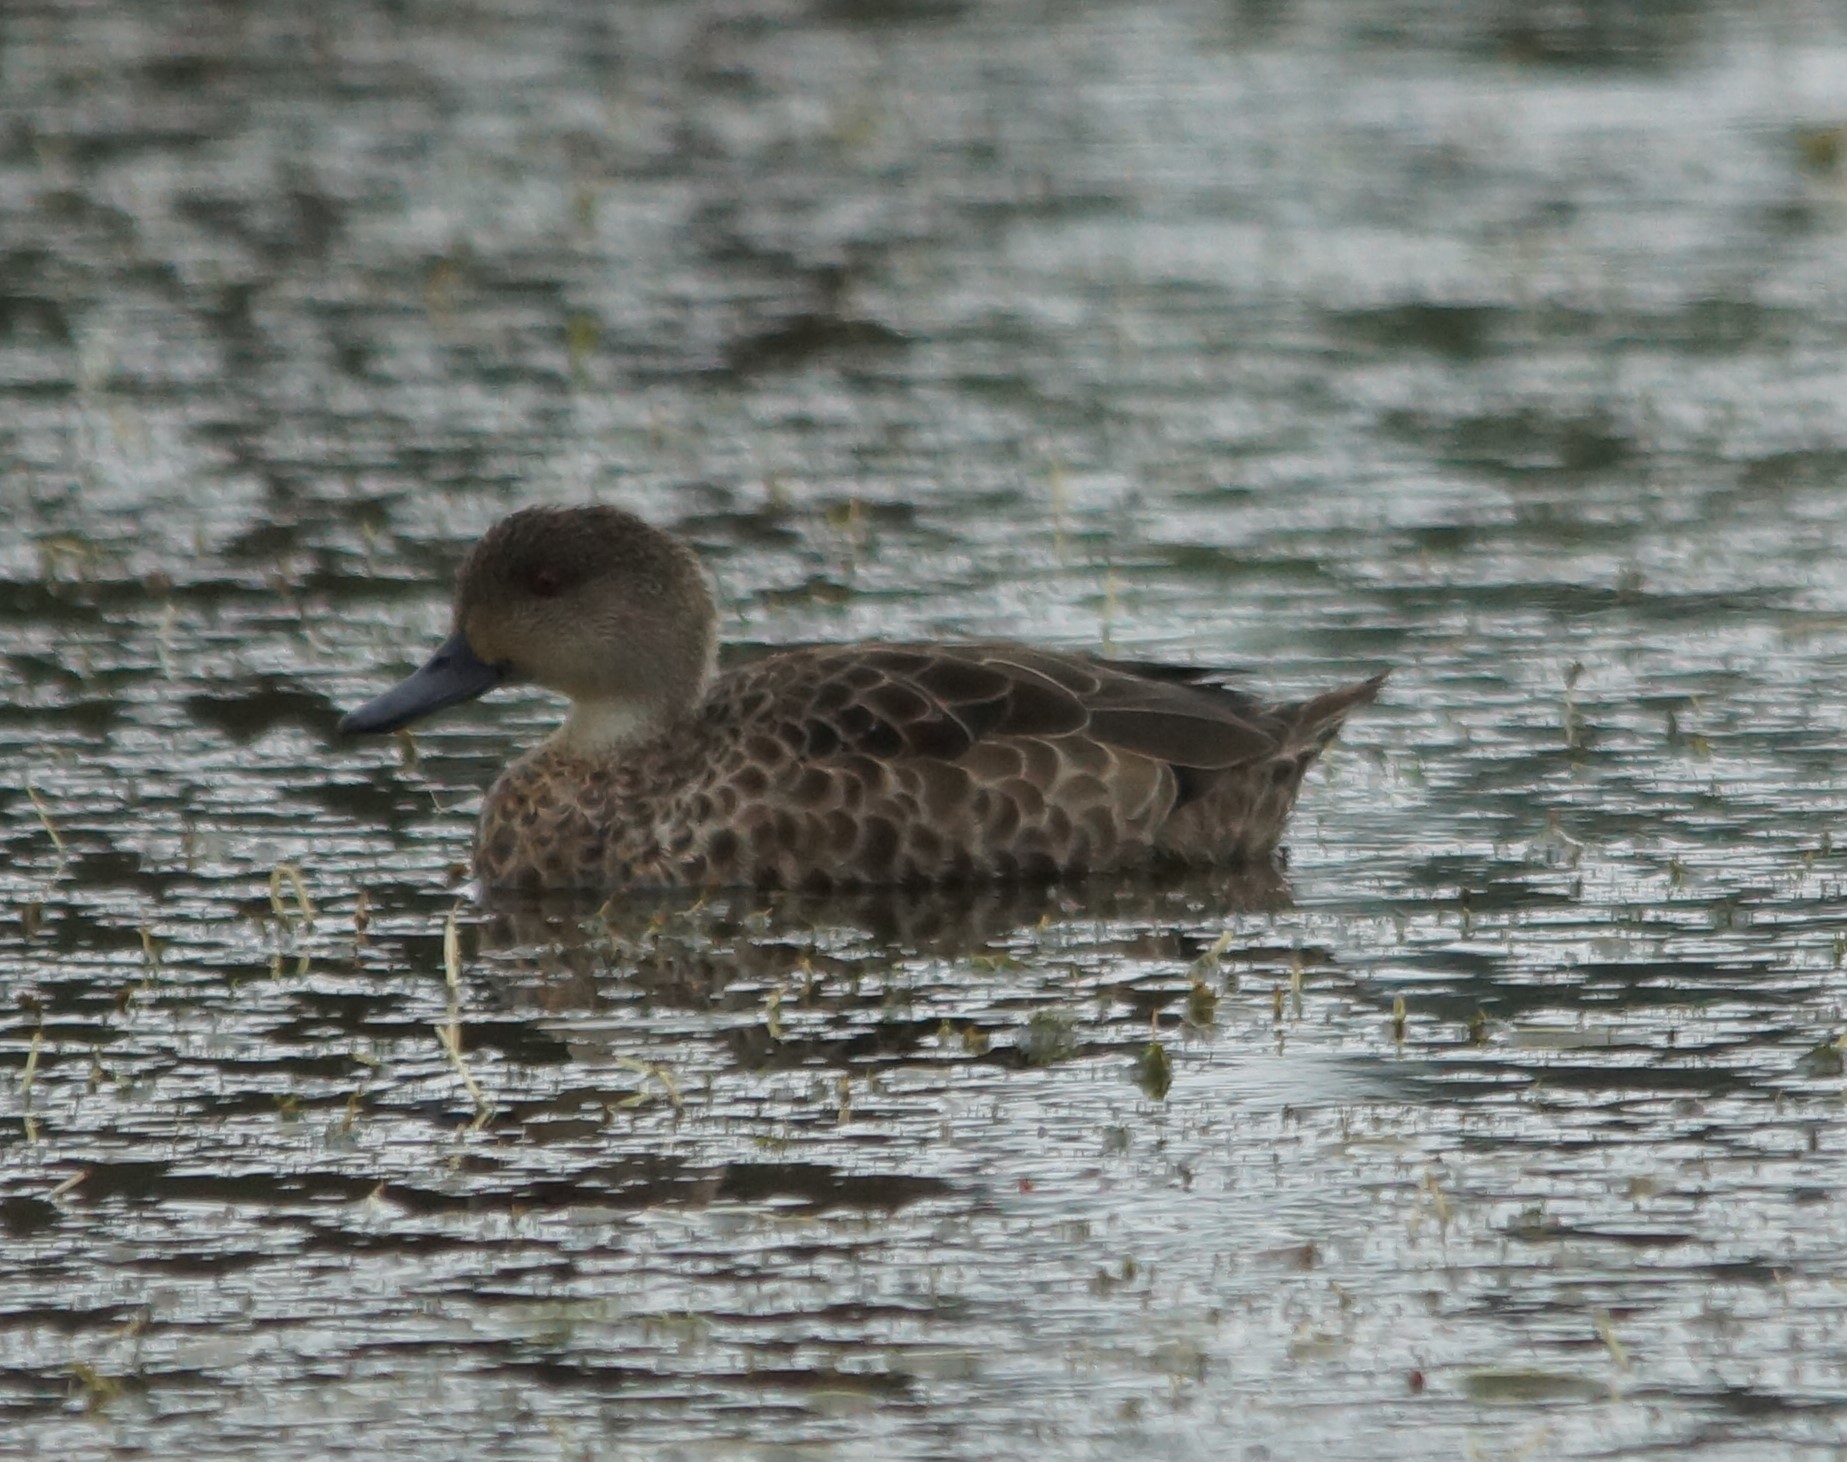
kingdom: Animalia
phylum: Chordata
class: Aves
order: Anseriformes
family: Anatidae
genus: Anas
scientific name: Anas castanea
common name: Chestnut teal
